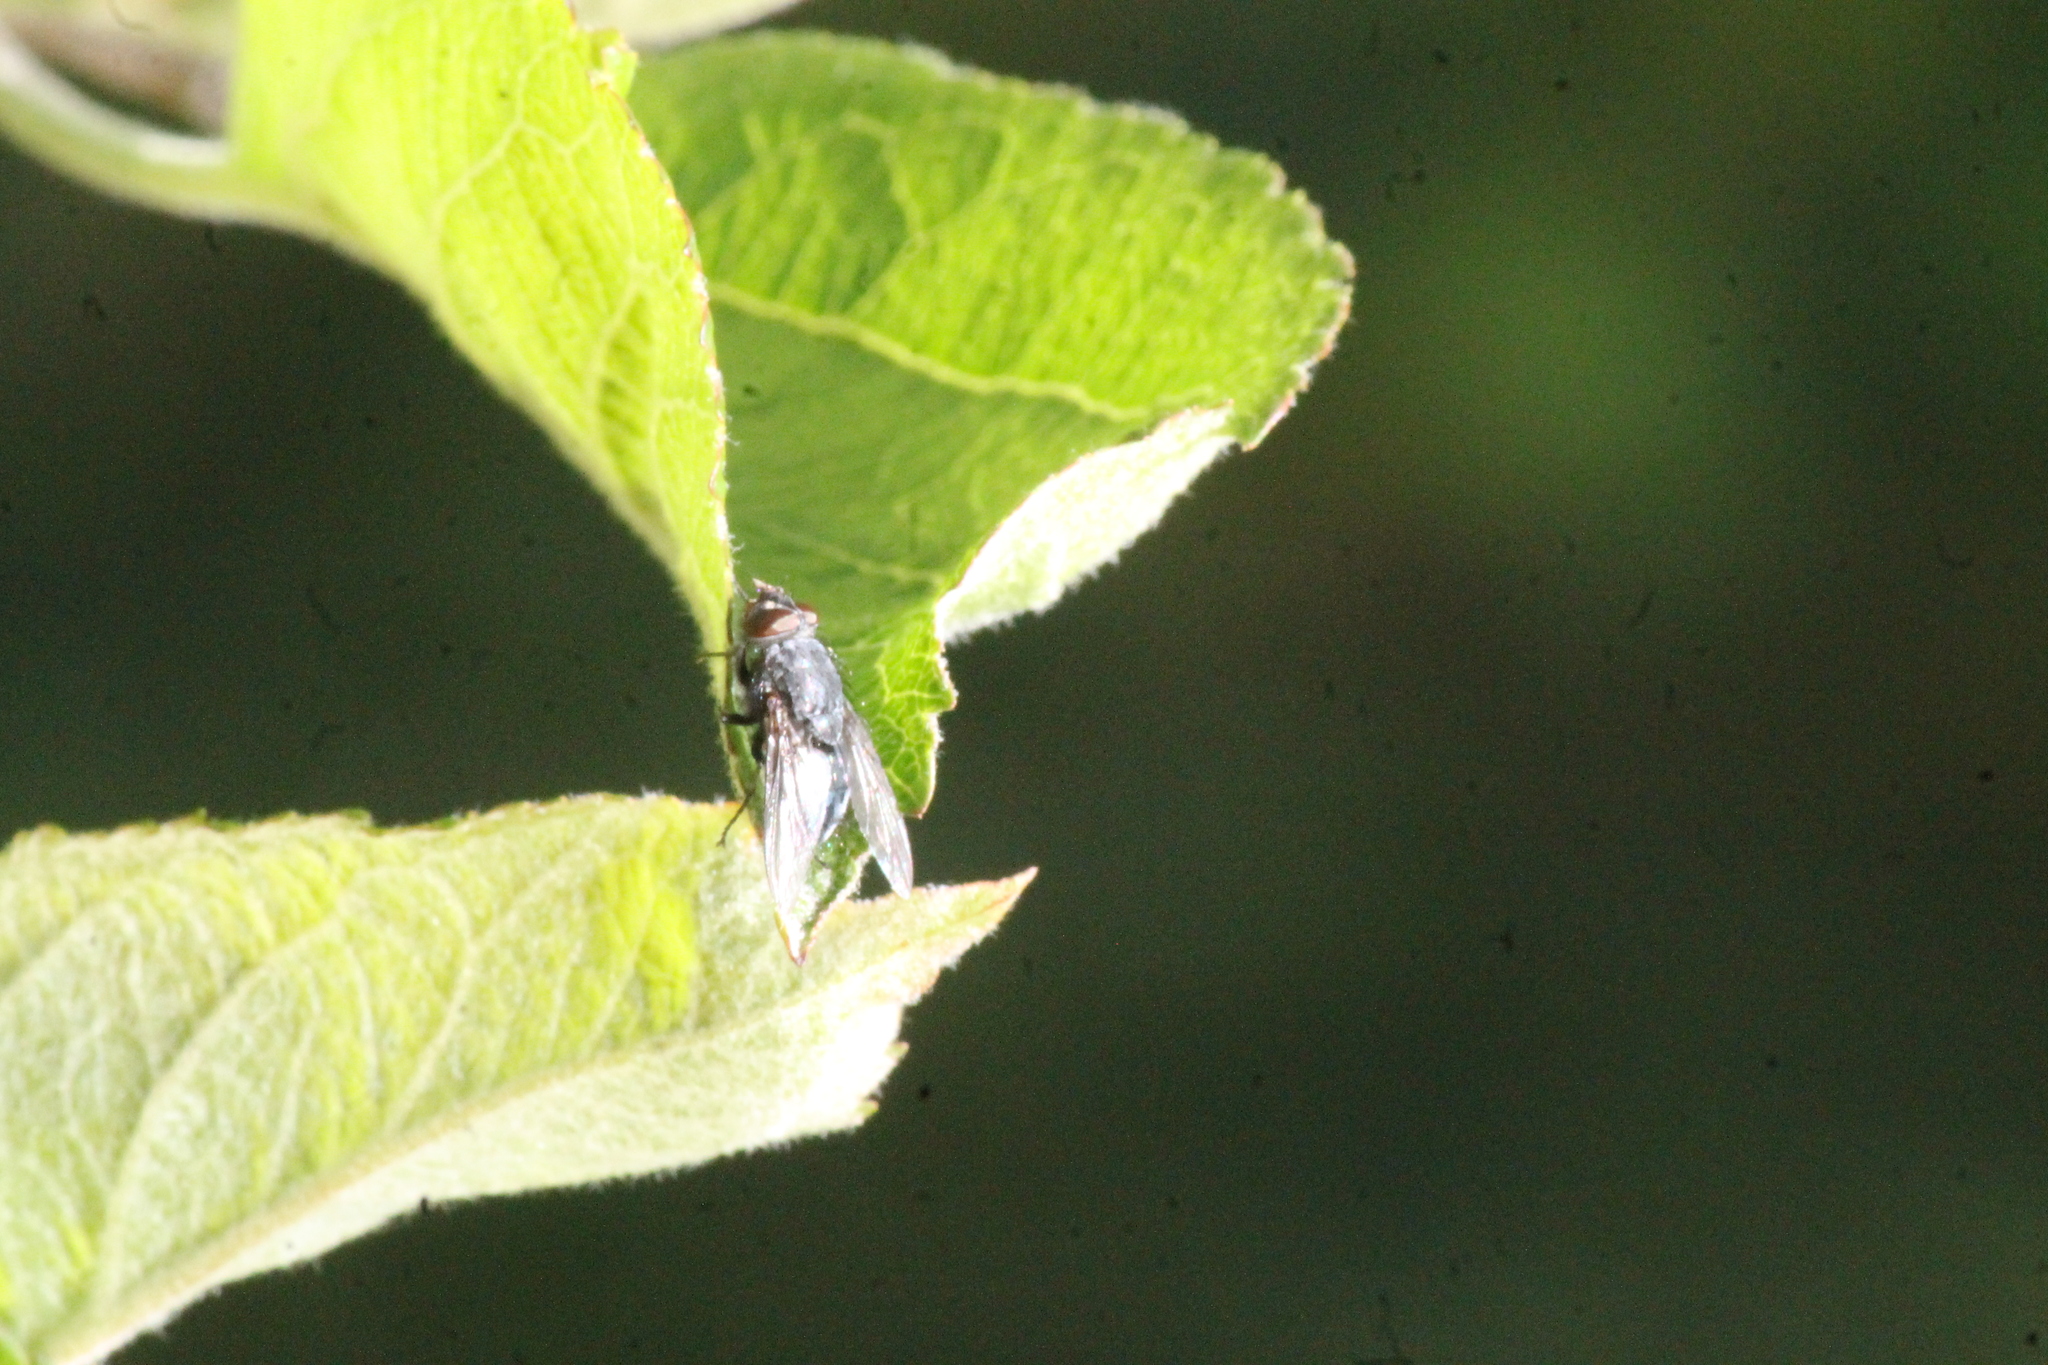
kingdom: Animalia
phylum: Arthropoda
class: Insecta
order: Diptera
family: Calliphoridae
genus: Calliphora
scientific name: Calliphora vicina
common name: Common blow flie
